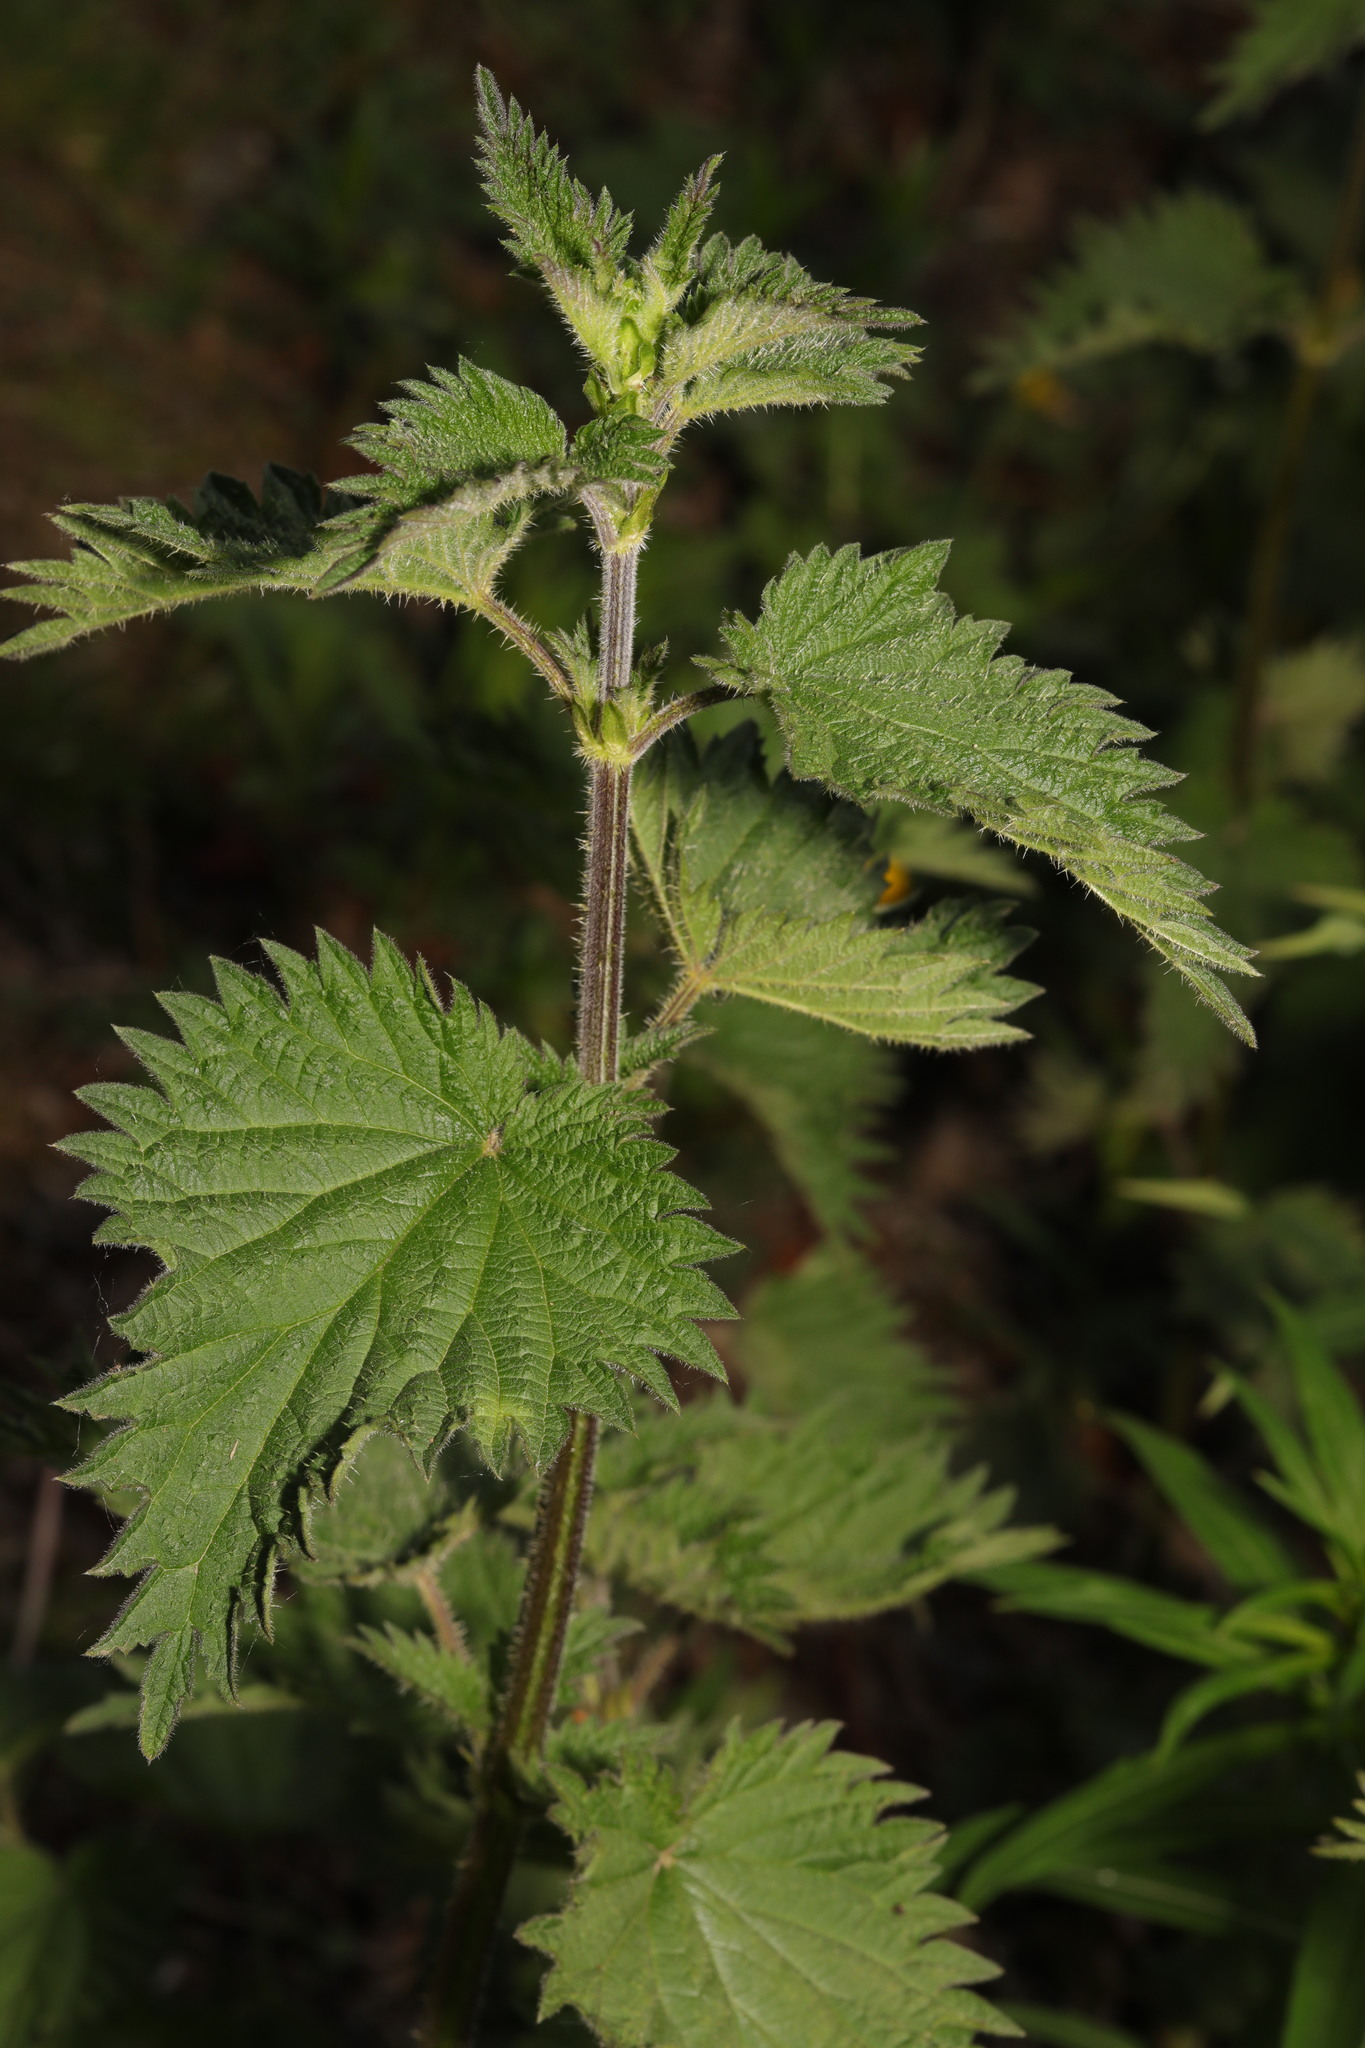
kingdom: Plantae
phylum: Tracheophyta
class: Magnoliopsida
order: Rosales
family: Urticaceae
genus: Urtica
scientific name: Urtica dioica
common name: Common nettle
